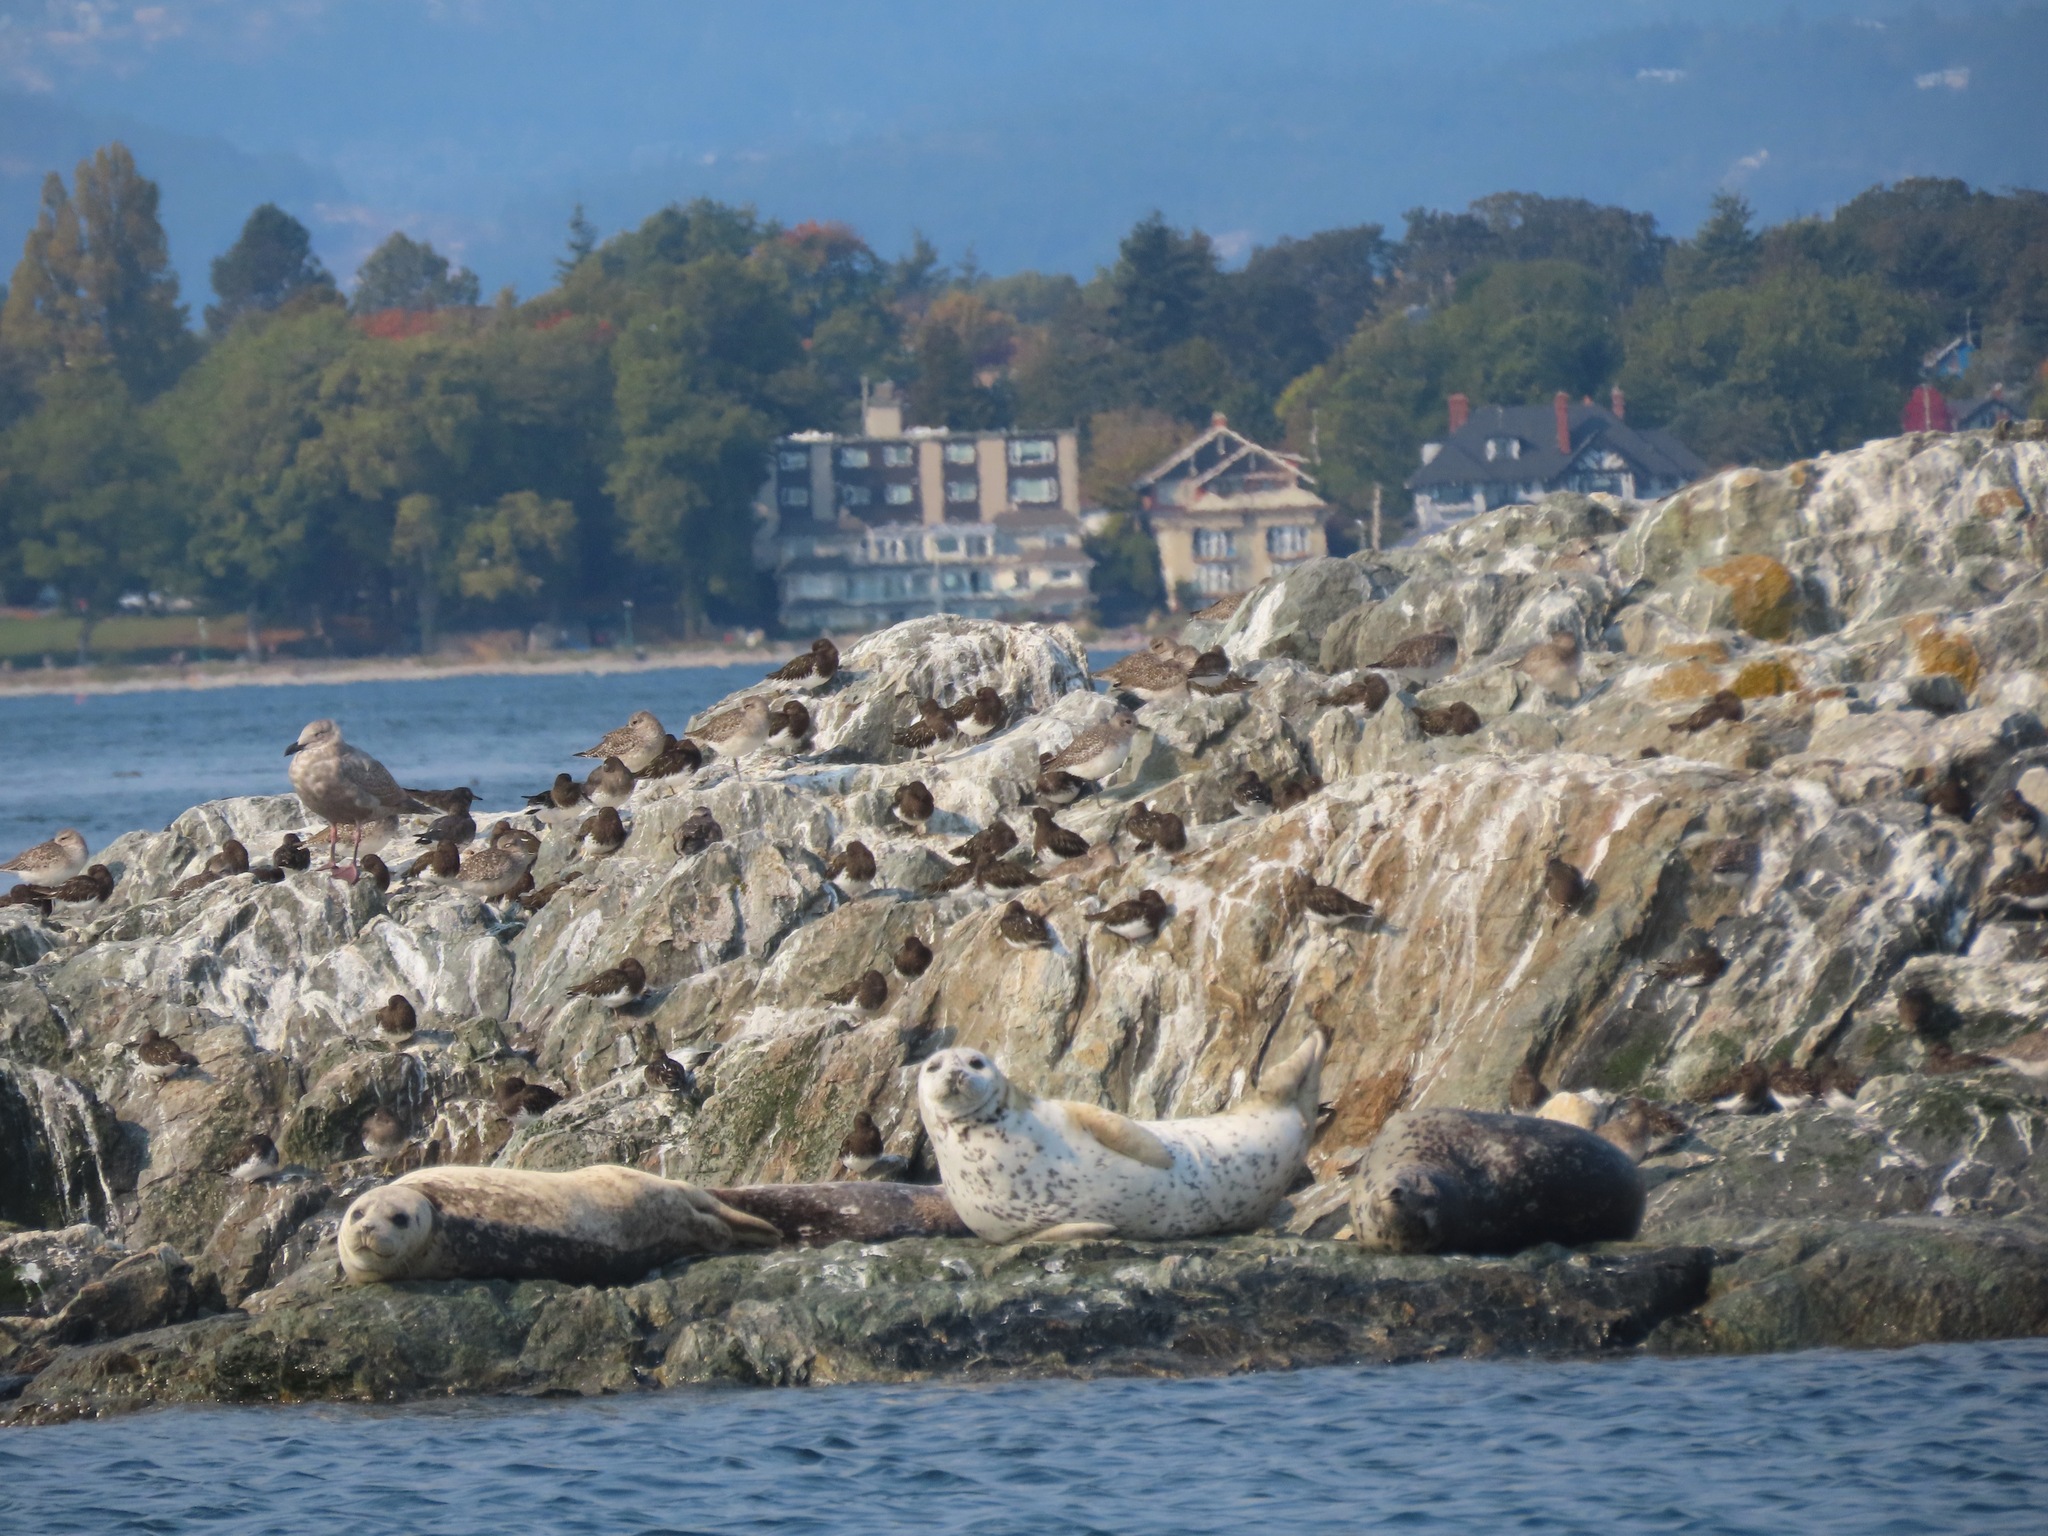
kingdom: Animalia
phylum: Chordata
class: Mammalia
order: Carnivora
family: Phocidae
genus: Phoca
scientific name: Phoca vitulina
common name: Harbor seal
